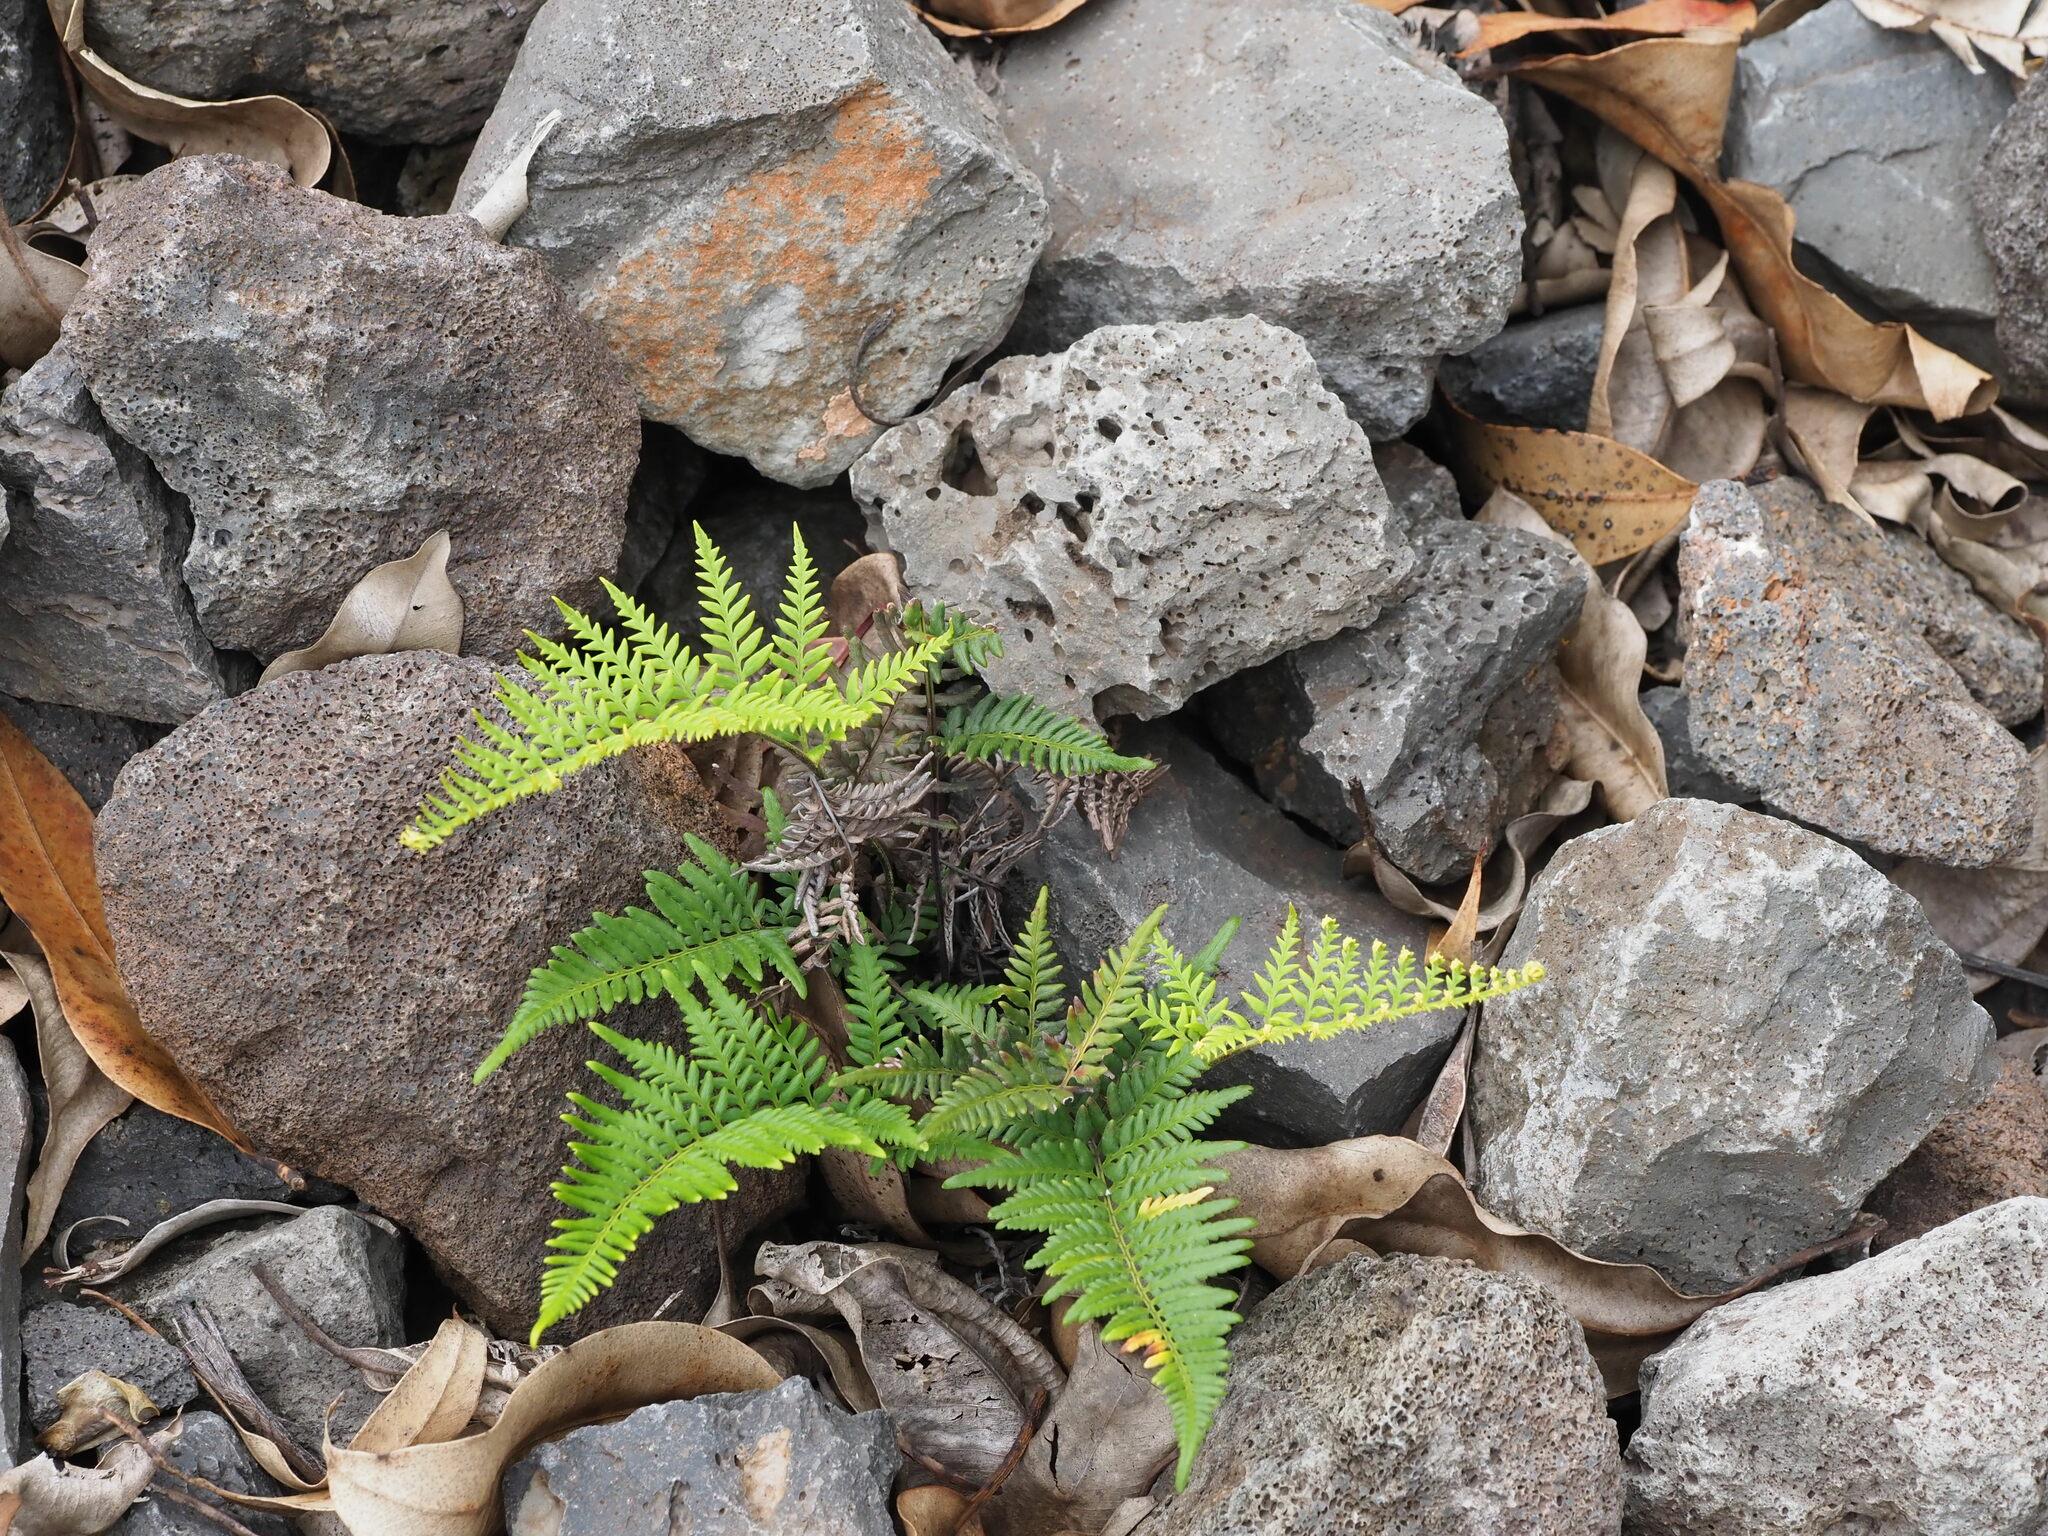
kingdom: Plantae
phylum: Tracheophyta
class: Polypodiopsida
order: Polypodiales
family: Pteridaceae
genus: Pityrogramma
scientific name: Pityrogramma austroamericana
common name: Leatherleaf goldback fern
